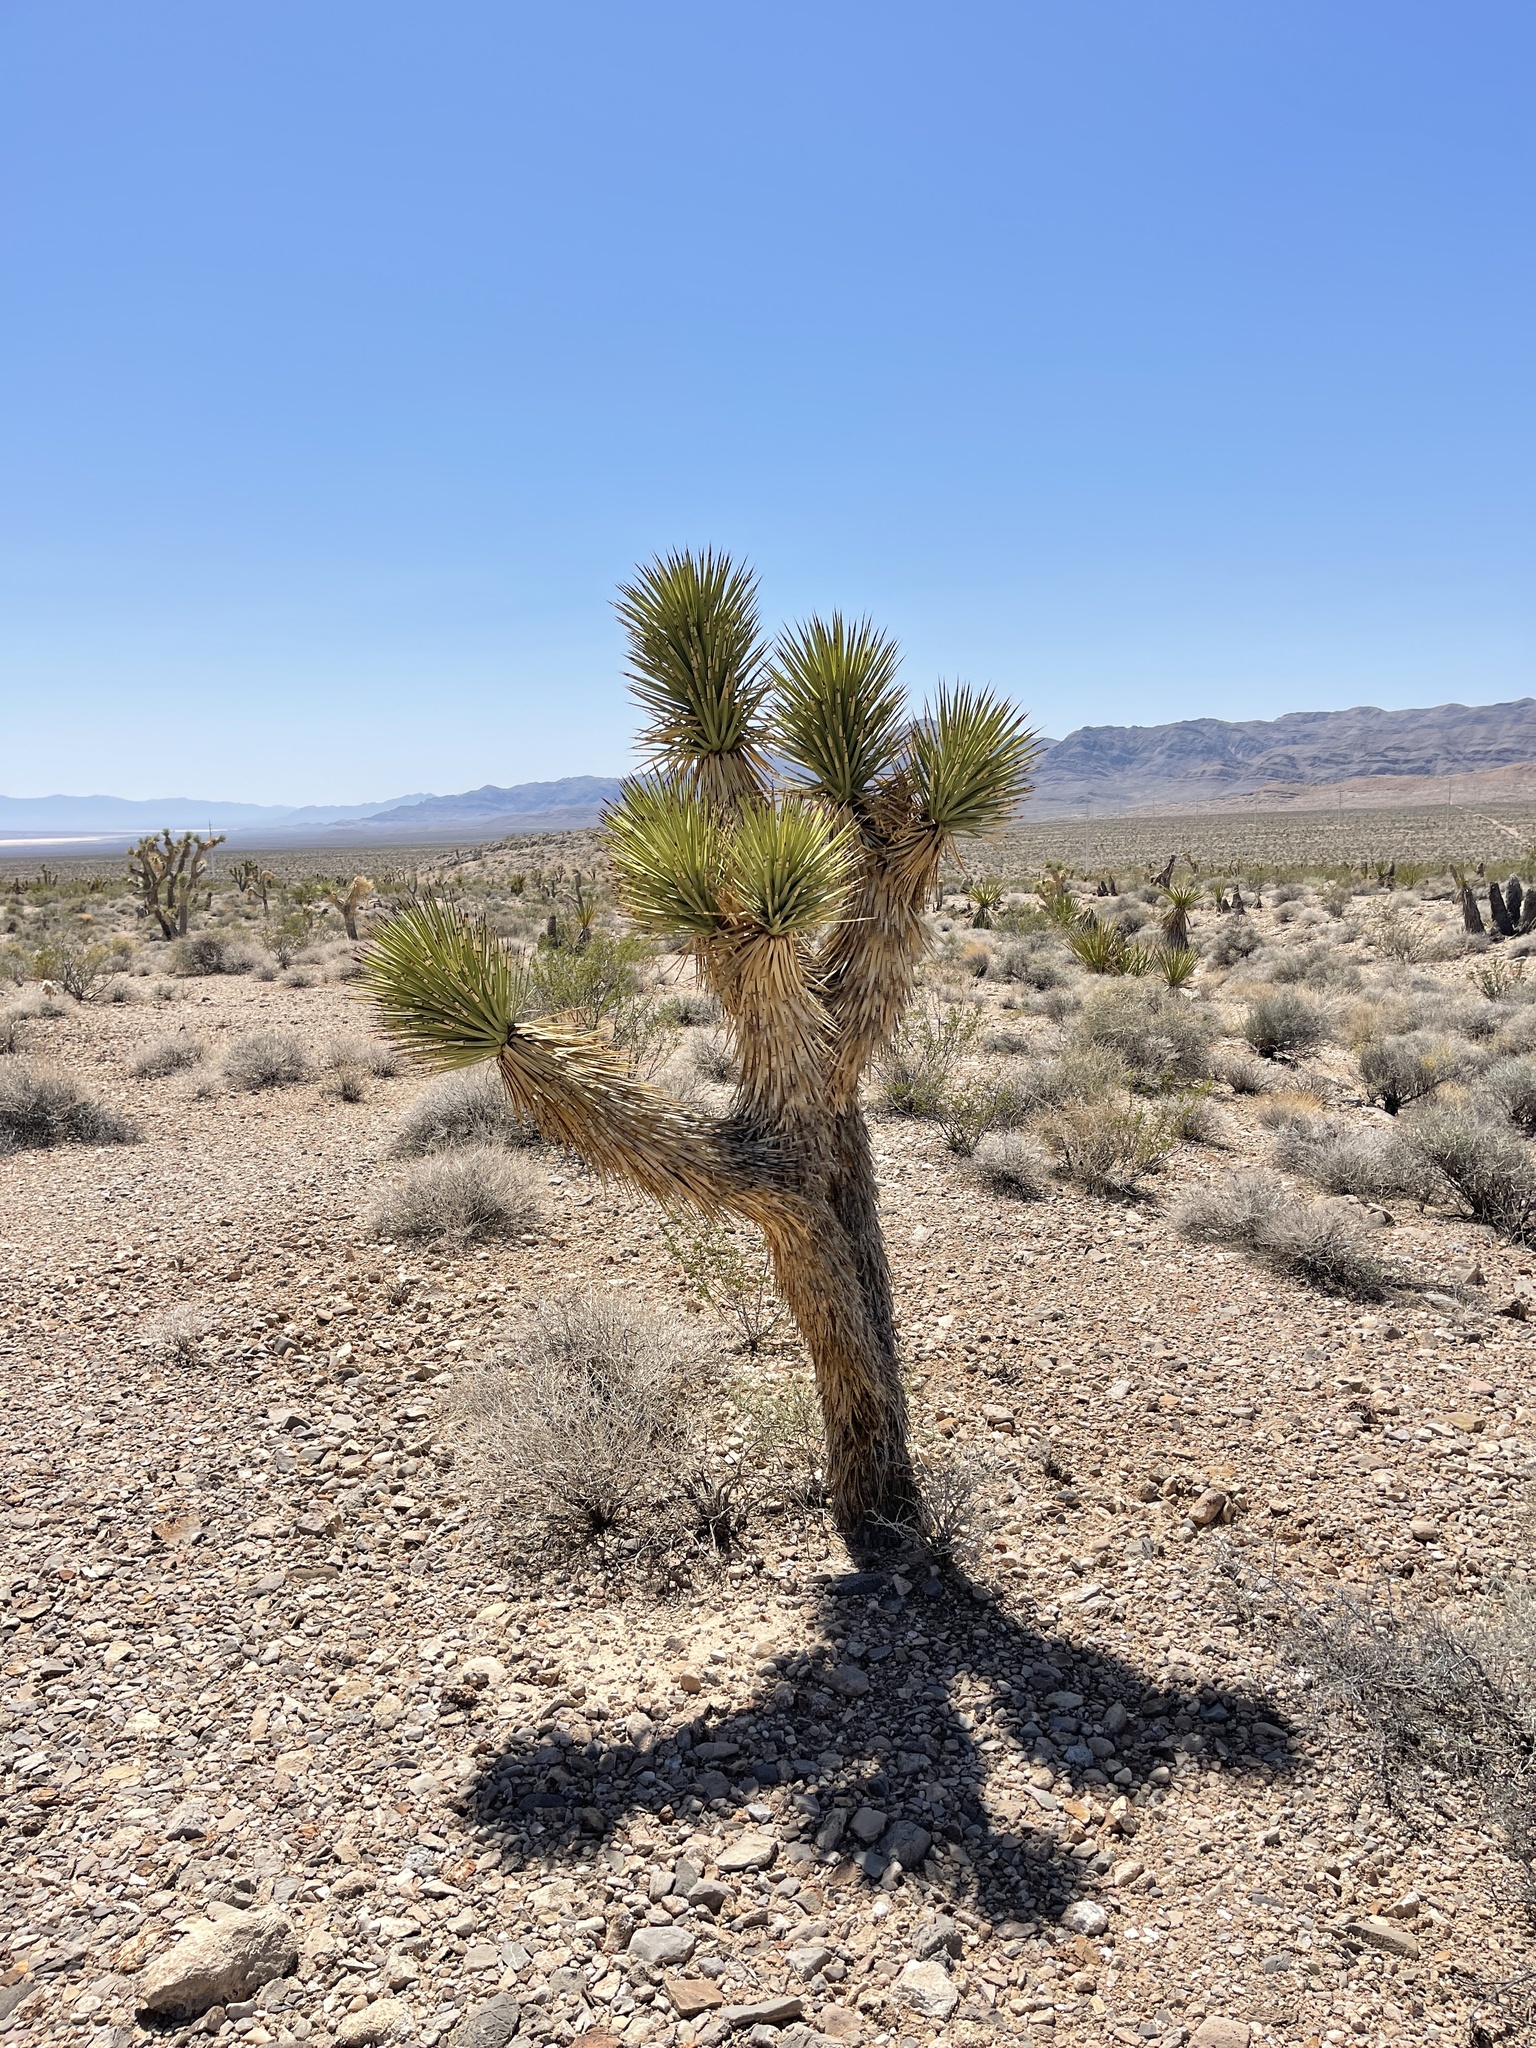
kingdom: Plantae
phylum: Tracheophyta
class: Liliopsida
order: Asparagales
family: Asparagaceae
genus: Yucca
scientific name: Yucca brevifolia
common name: Joshua tree
